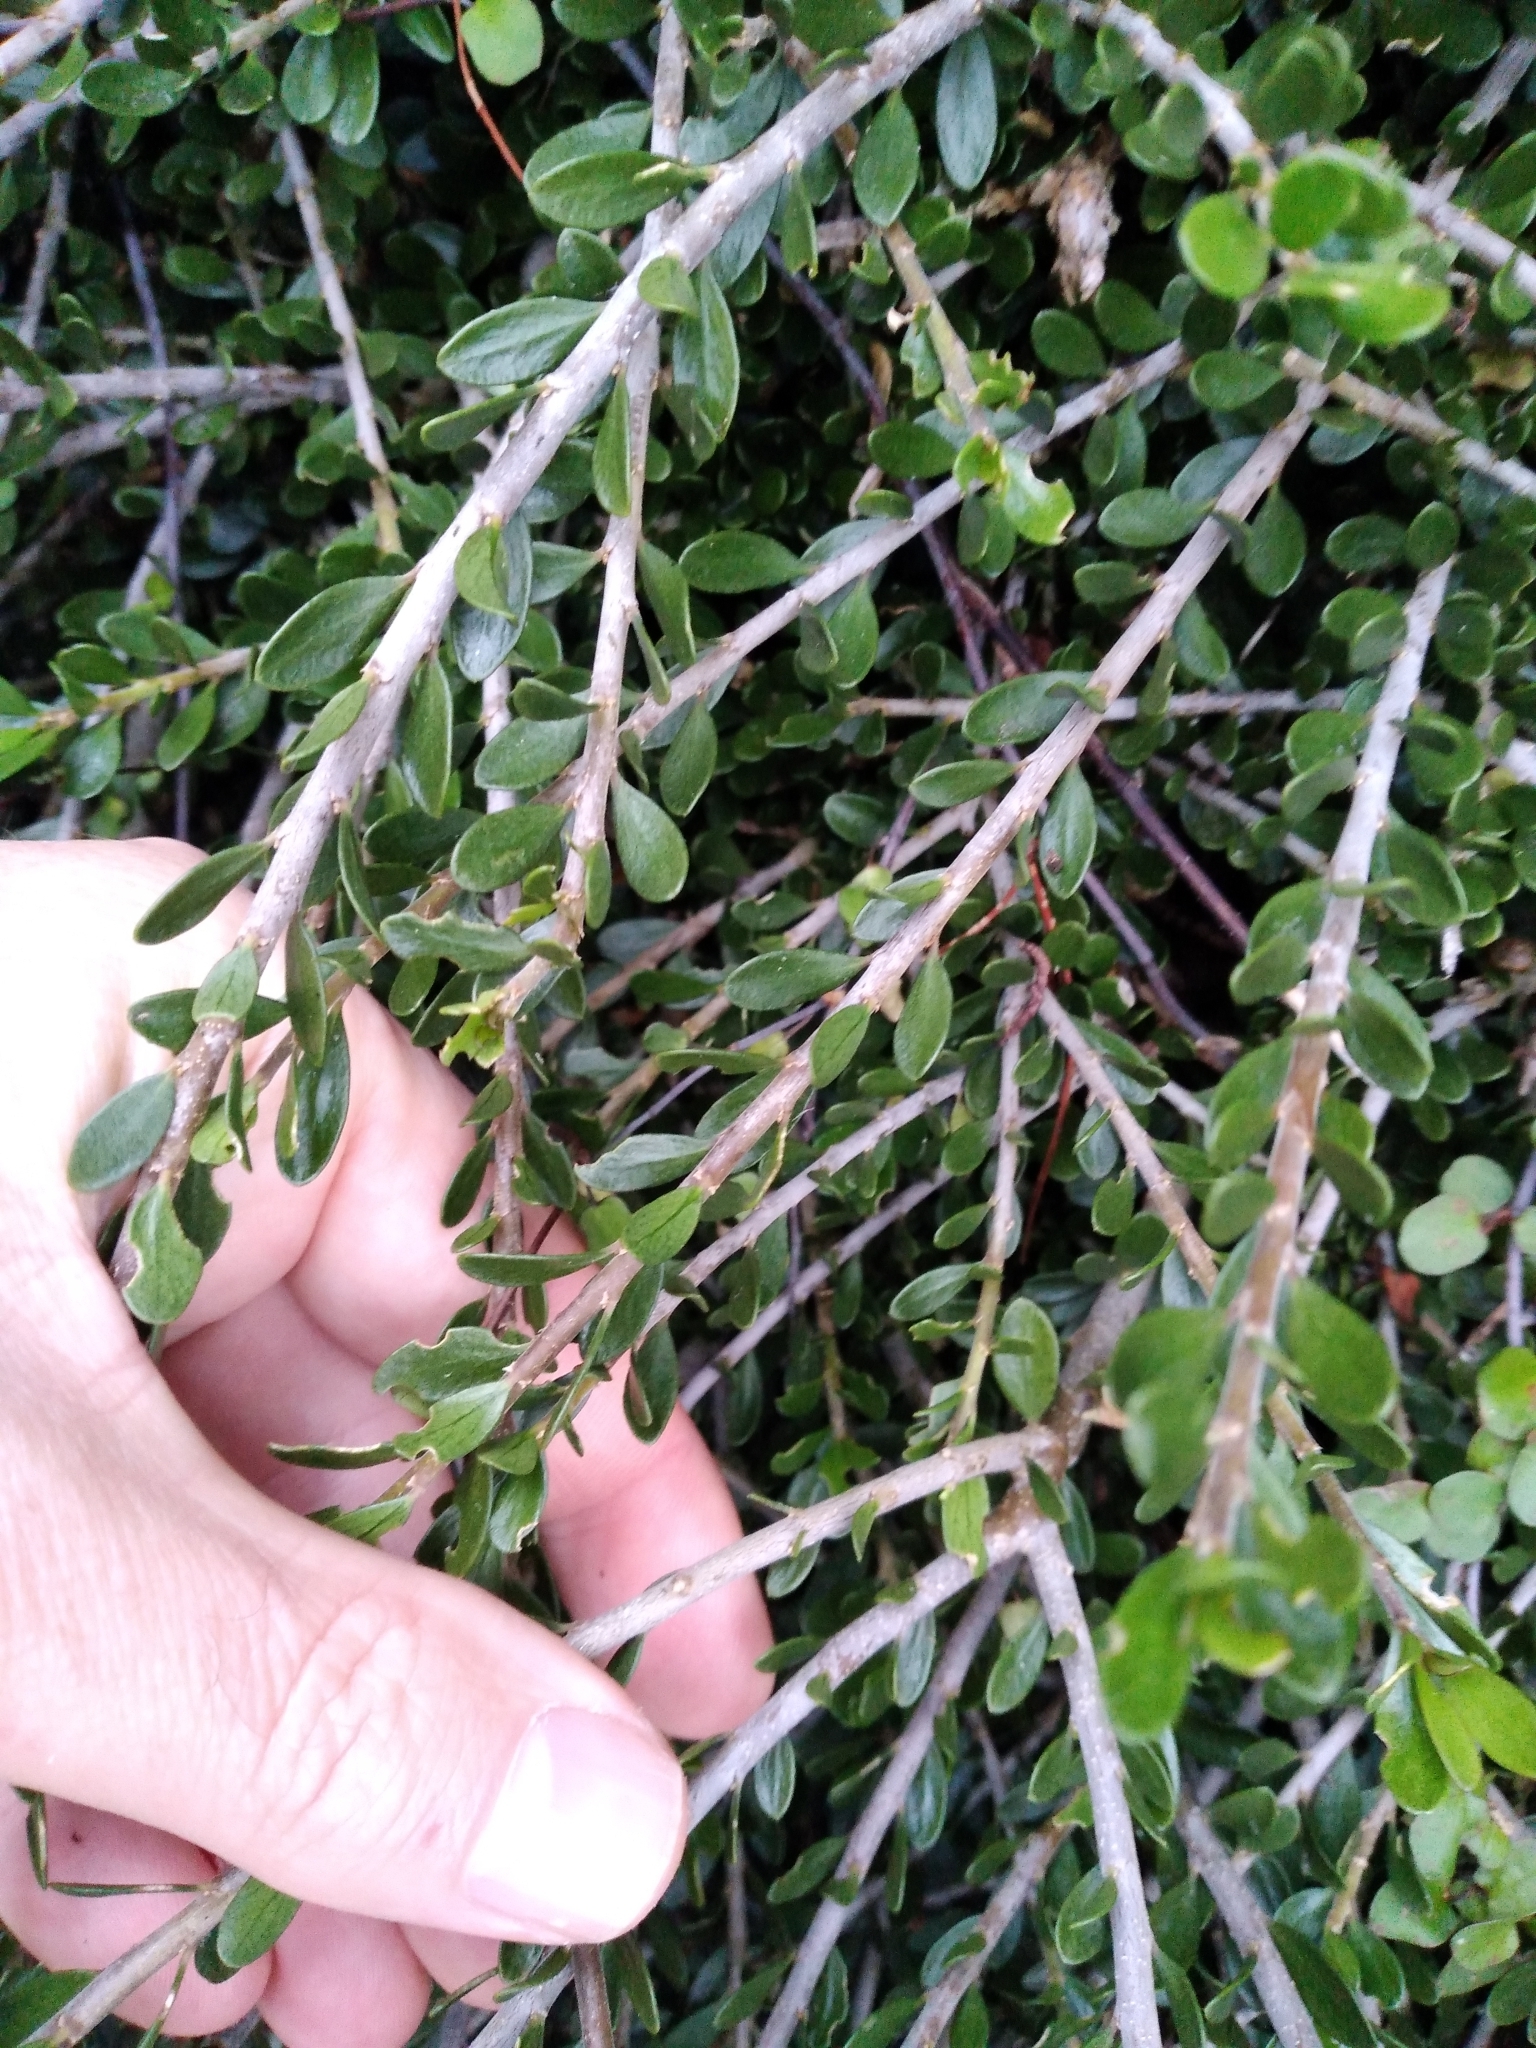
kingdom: Plantae
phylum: Tracheophyta
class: Magnoliopsida
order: Malpighiales
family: Violaceae
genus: Melicytus
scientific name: Melicytus crassifolius
